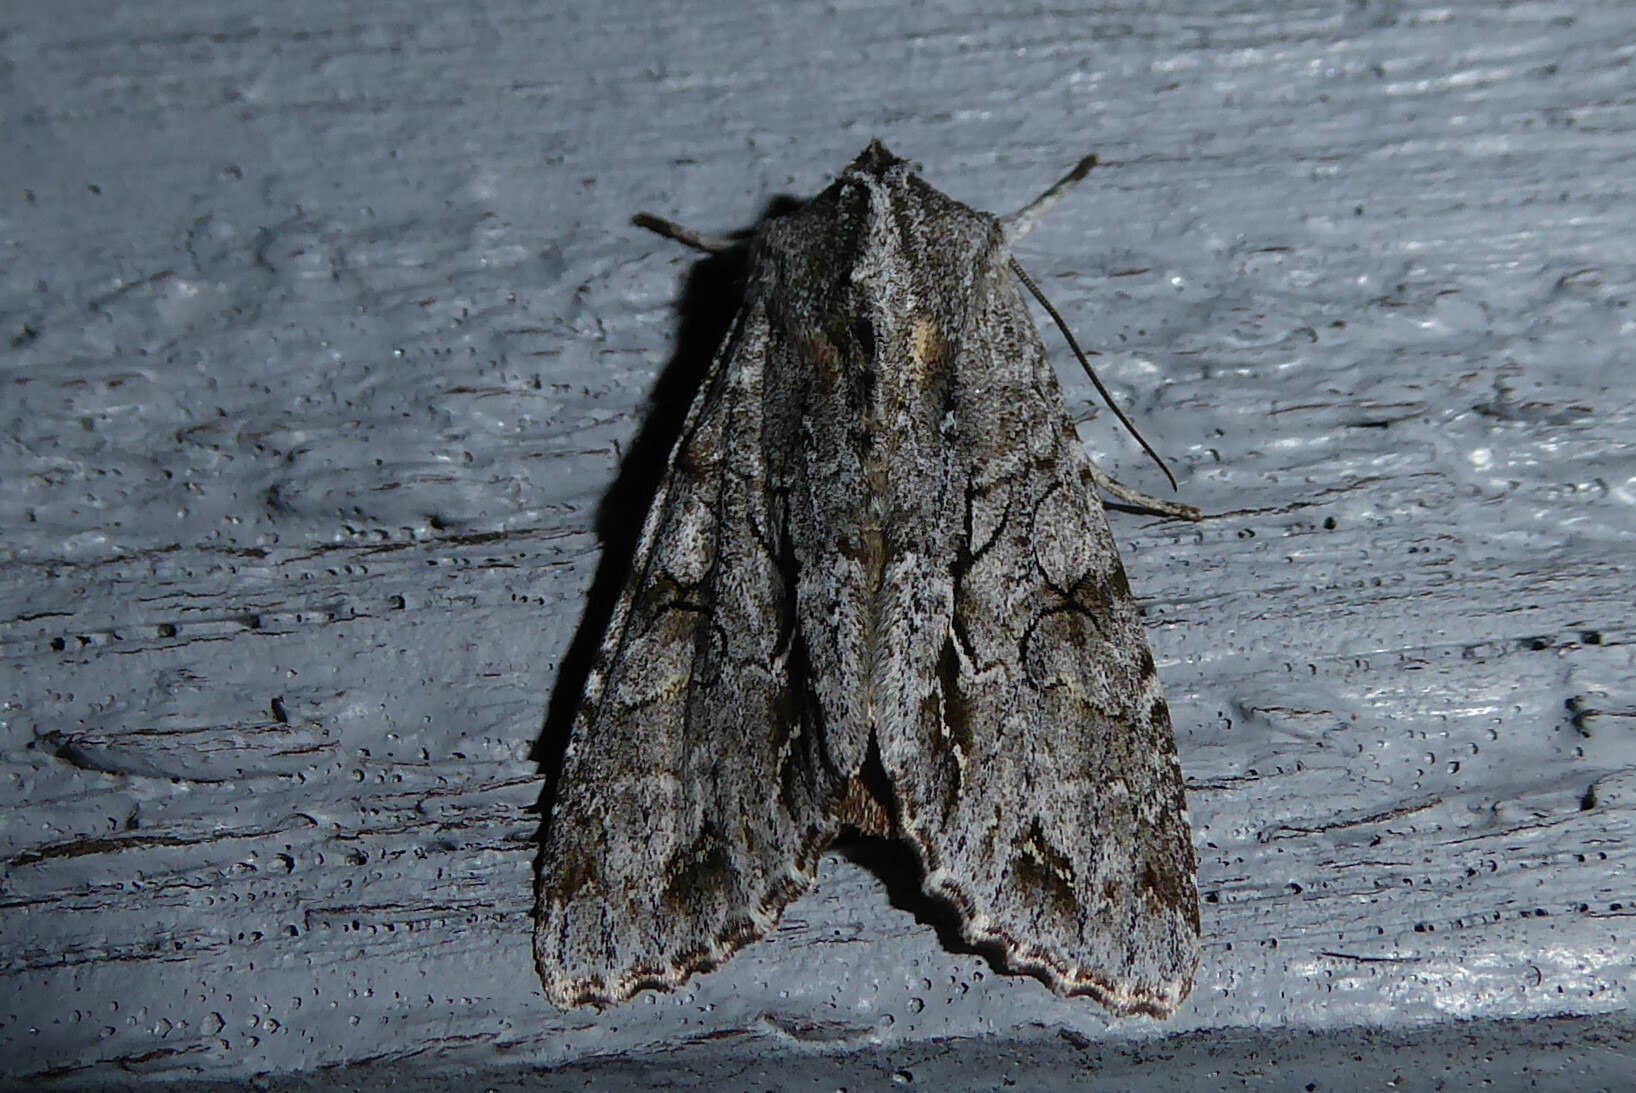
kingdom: Animalia
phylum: Arthropoda
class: Insecta
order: Lepidoptera
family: Noctuidae
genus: Ichneutica
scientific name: Ichneutica
